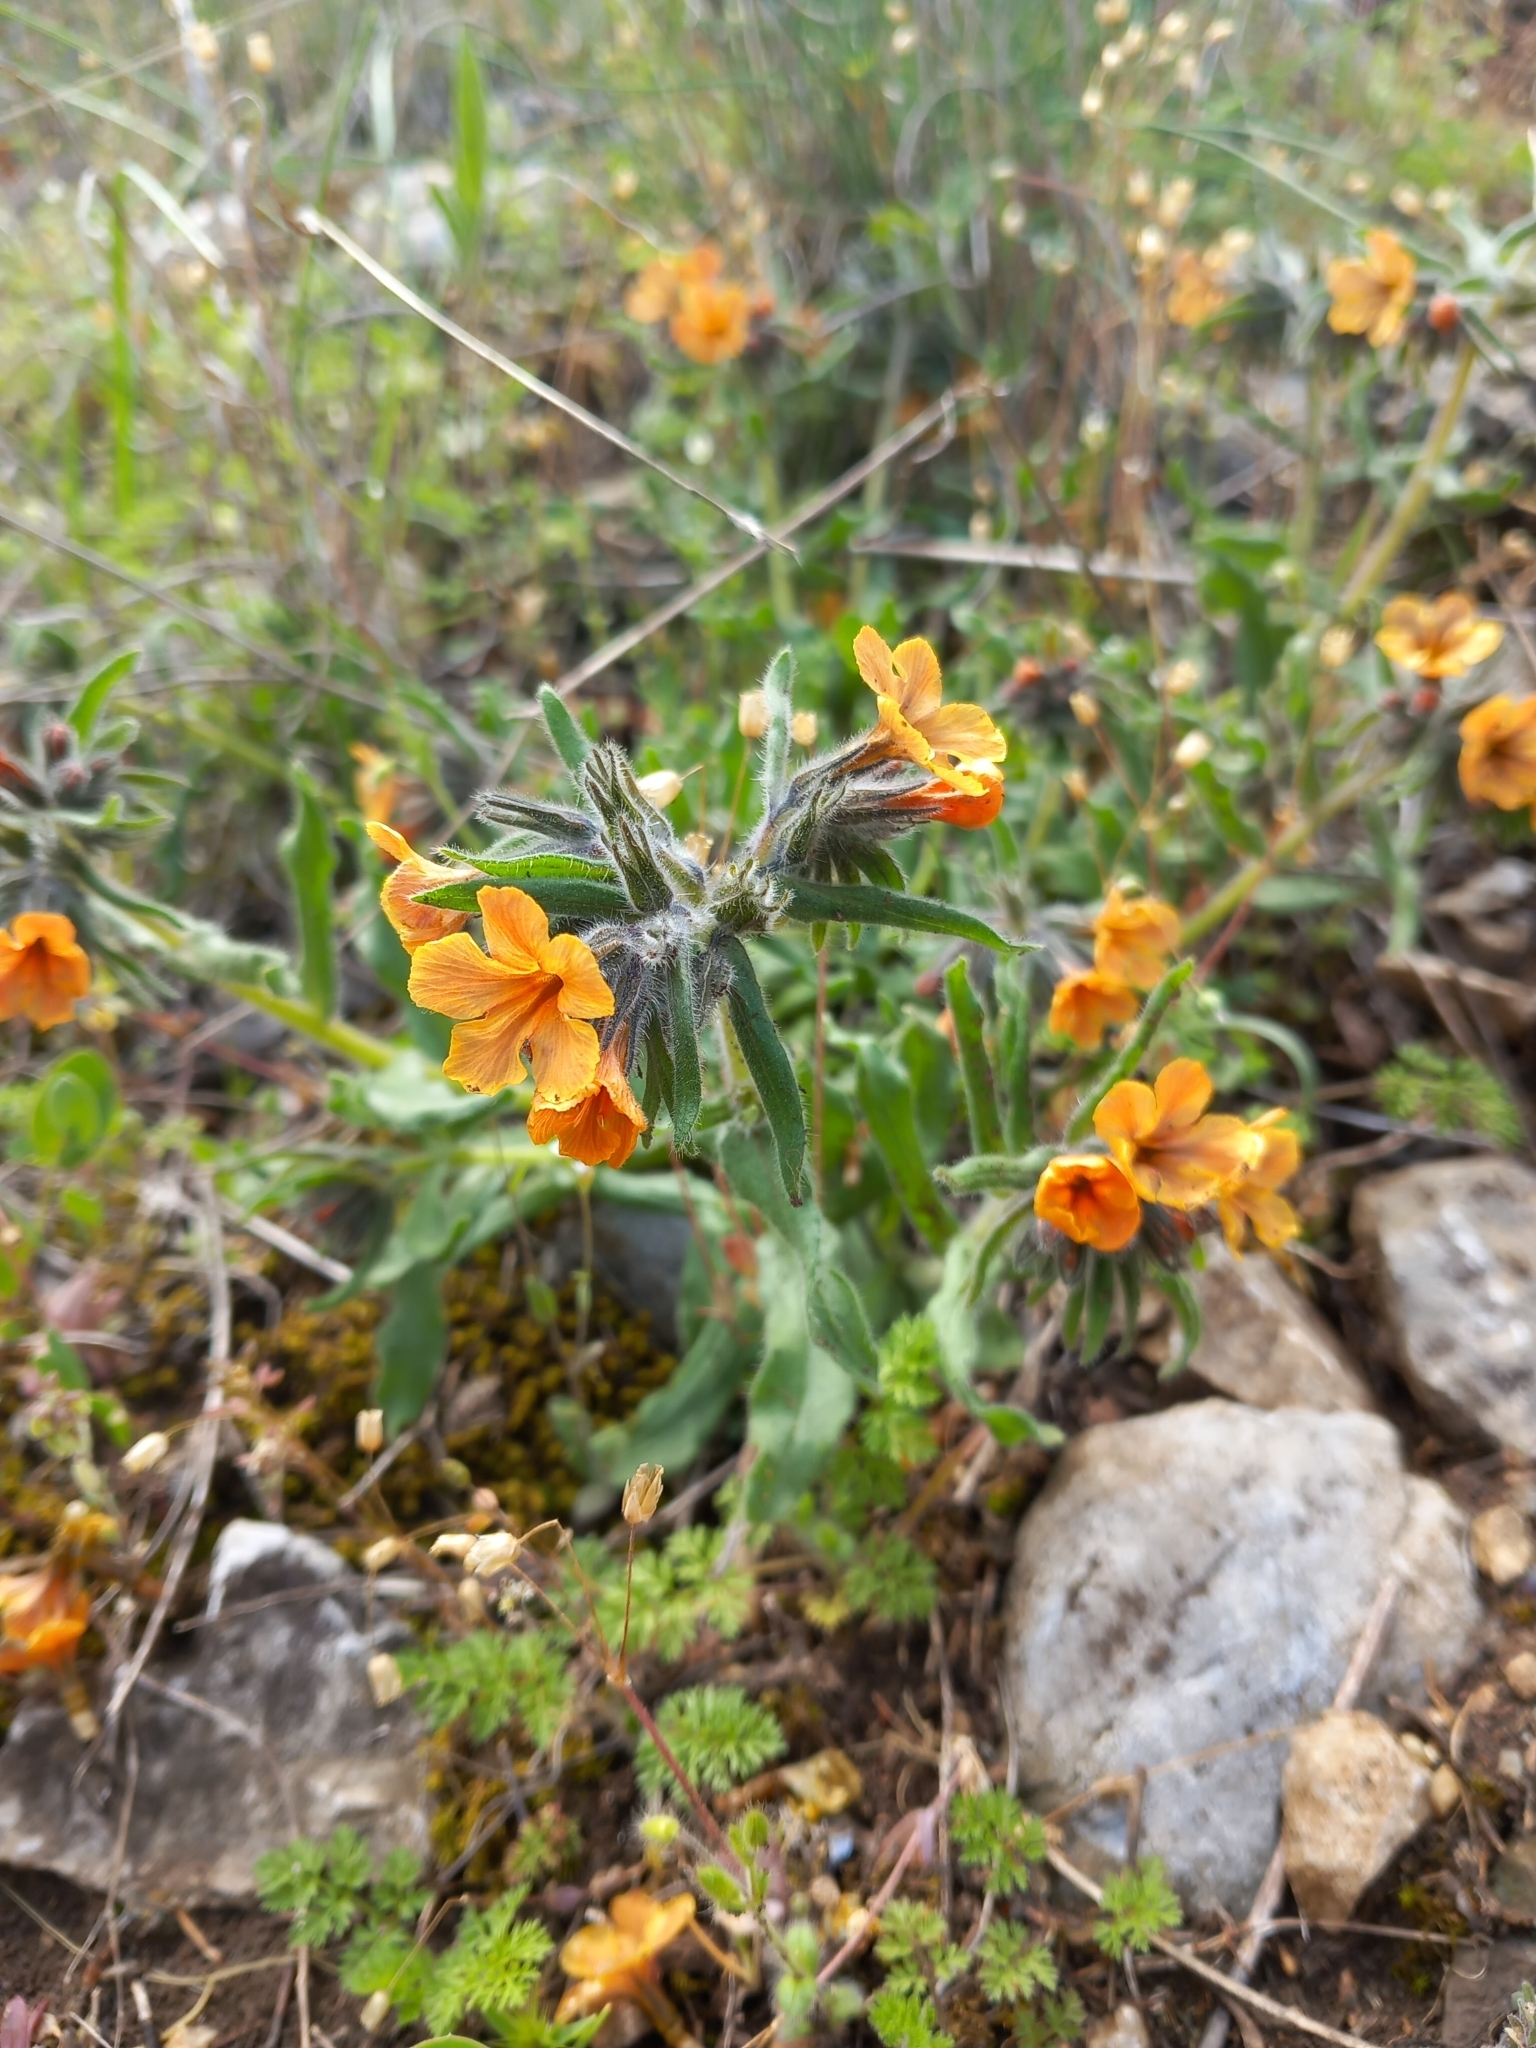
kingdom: Plantae
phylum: Tracheophyta
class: Magnoliopsida
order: Boraginales
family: Boraginaceae
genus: Alkanna
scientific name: Alkanna primuliflora
